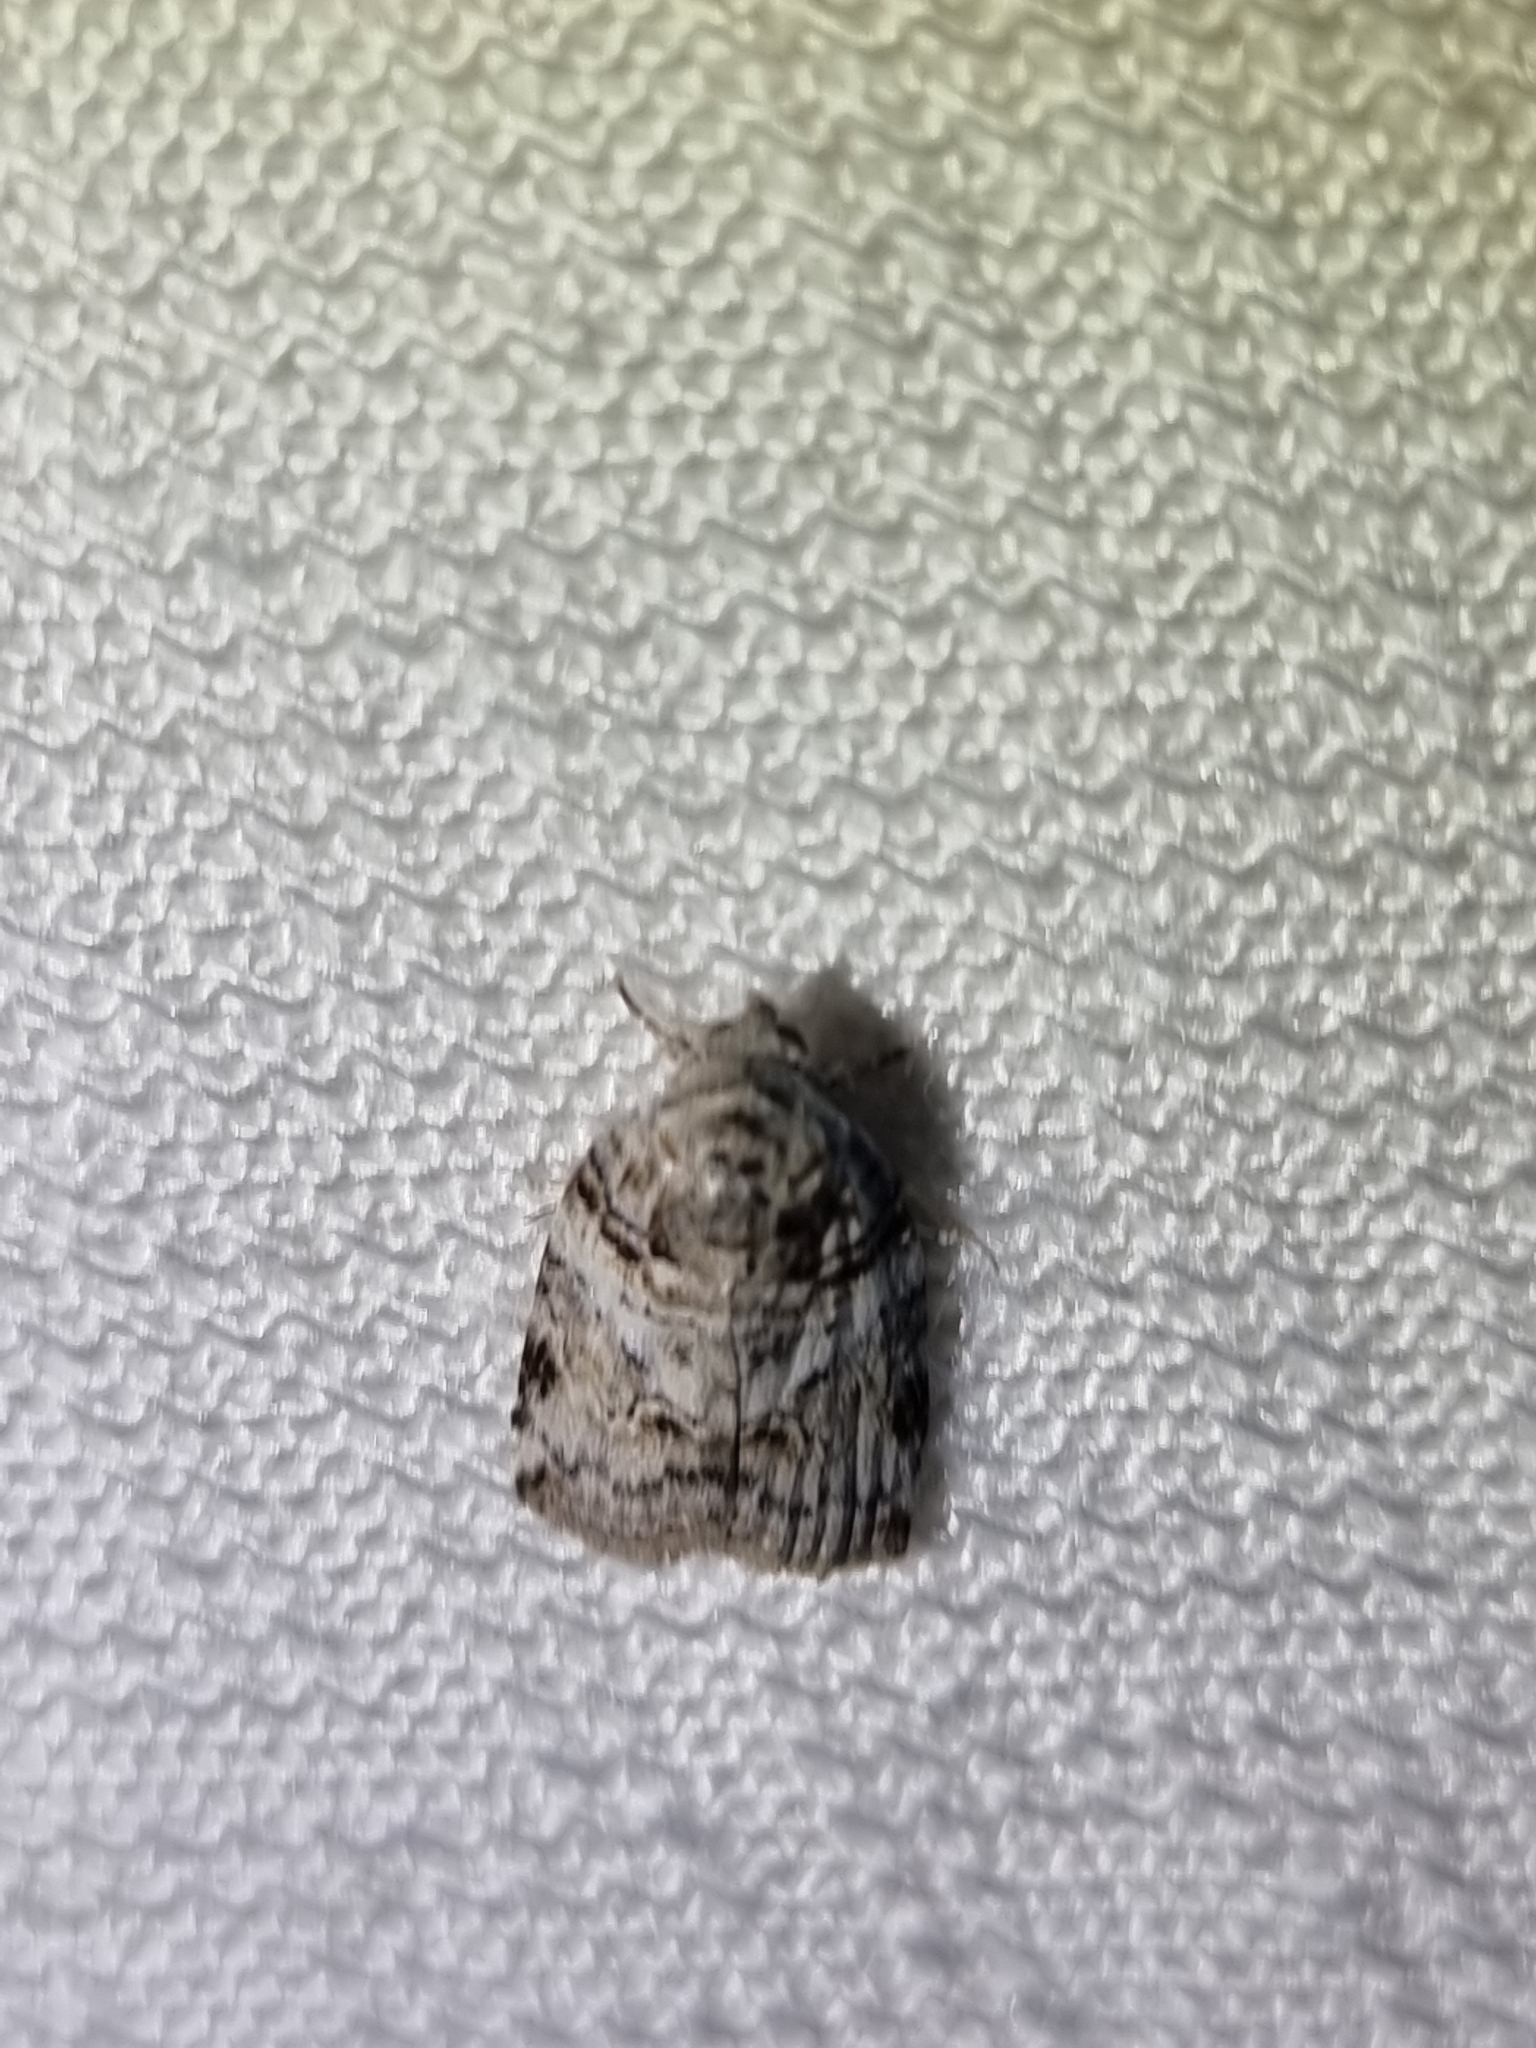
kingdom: Animalia
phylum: Arthropoda
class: Insecta
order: Lepidoptera
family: Nolidae
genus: Garella
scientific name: Garella vallata
